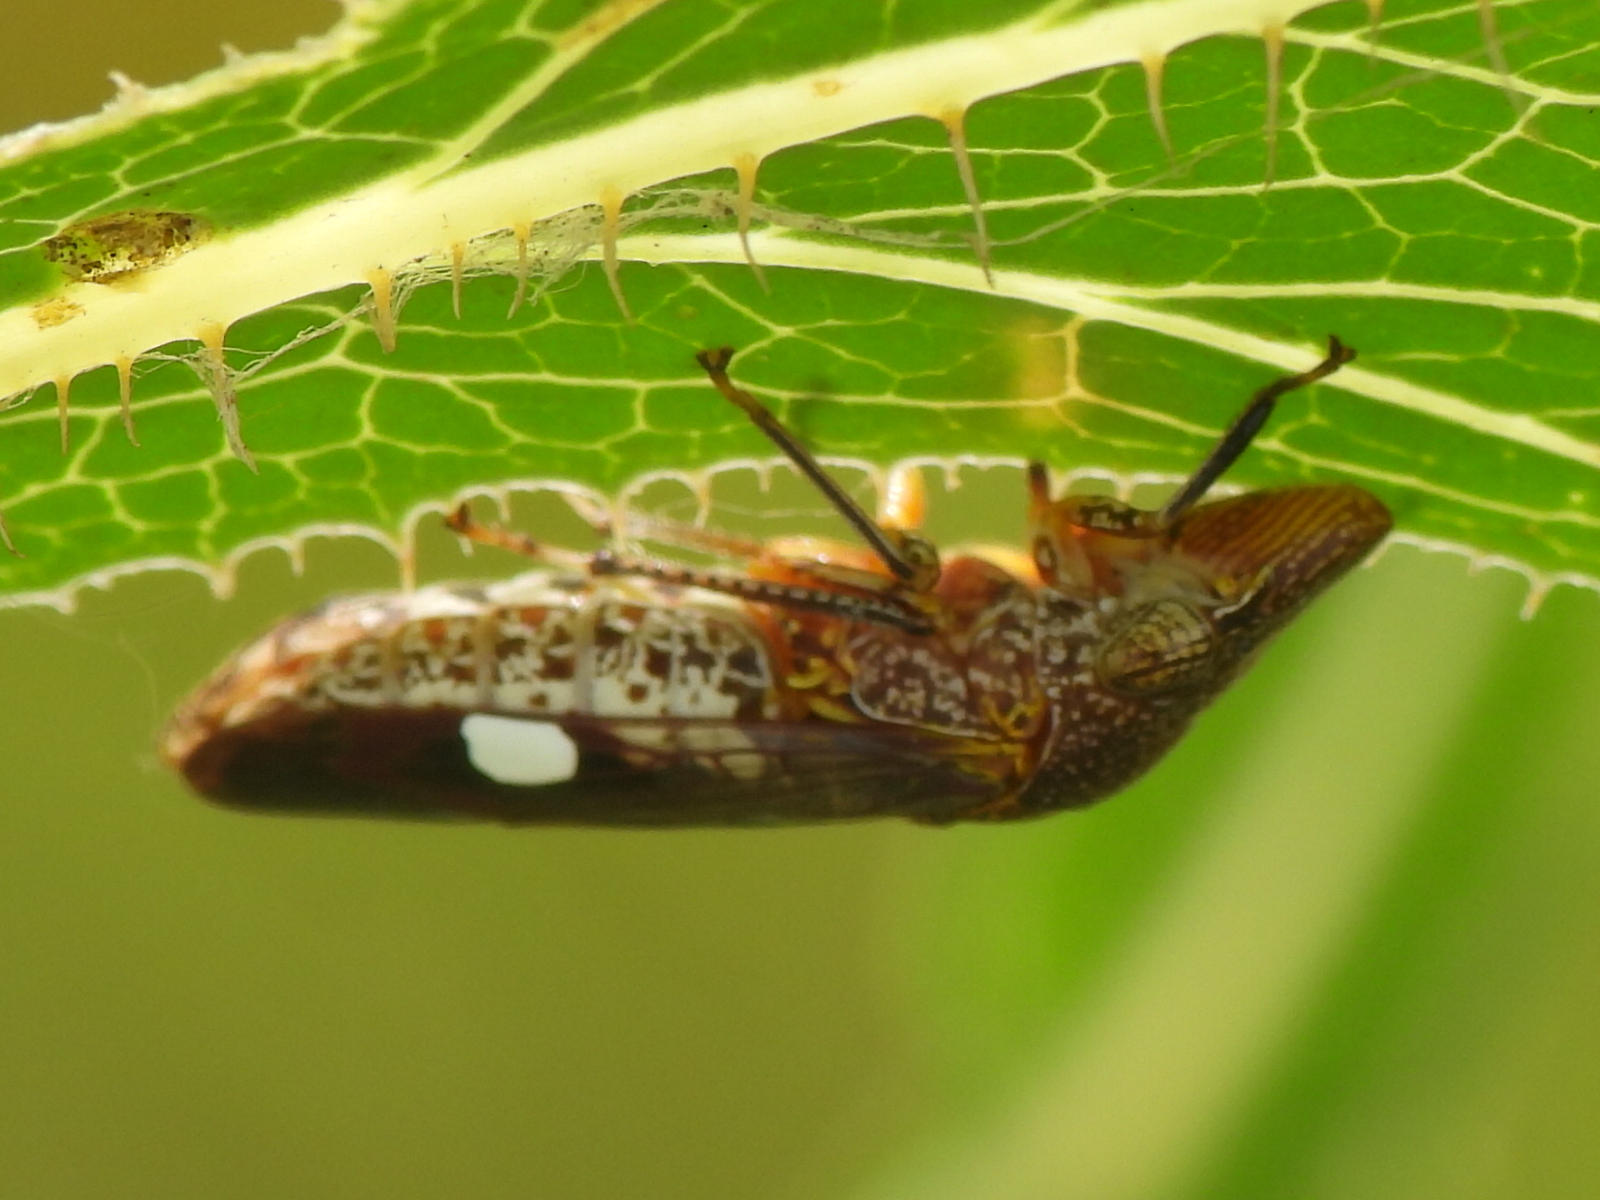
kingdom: Animalia
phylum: Arthropoda
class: Insecta
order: Hemiptera
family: Cicadellidae
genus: Homalodisca
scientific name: Homalodisca vitripennis
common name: Glassy-winged sharpshooter
